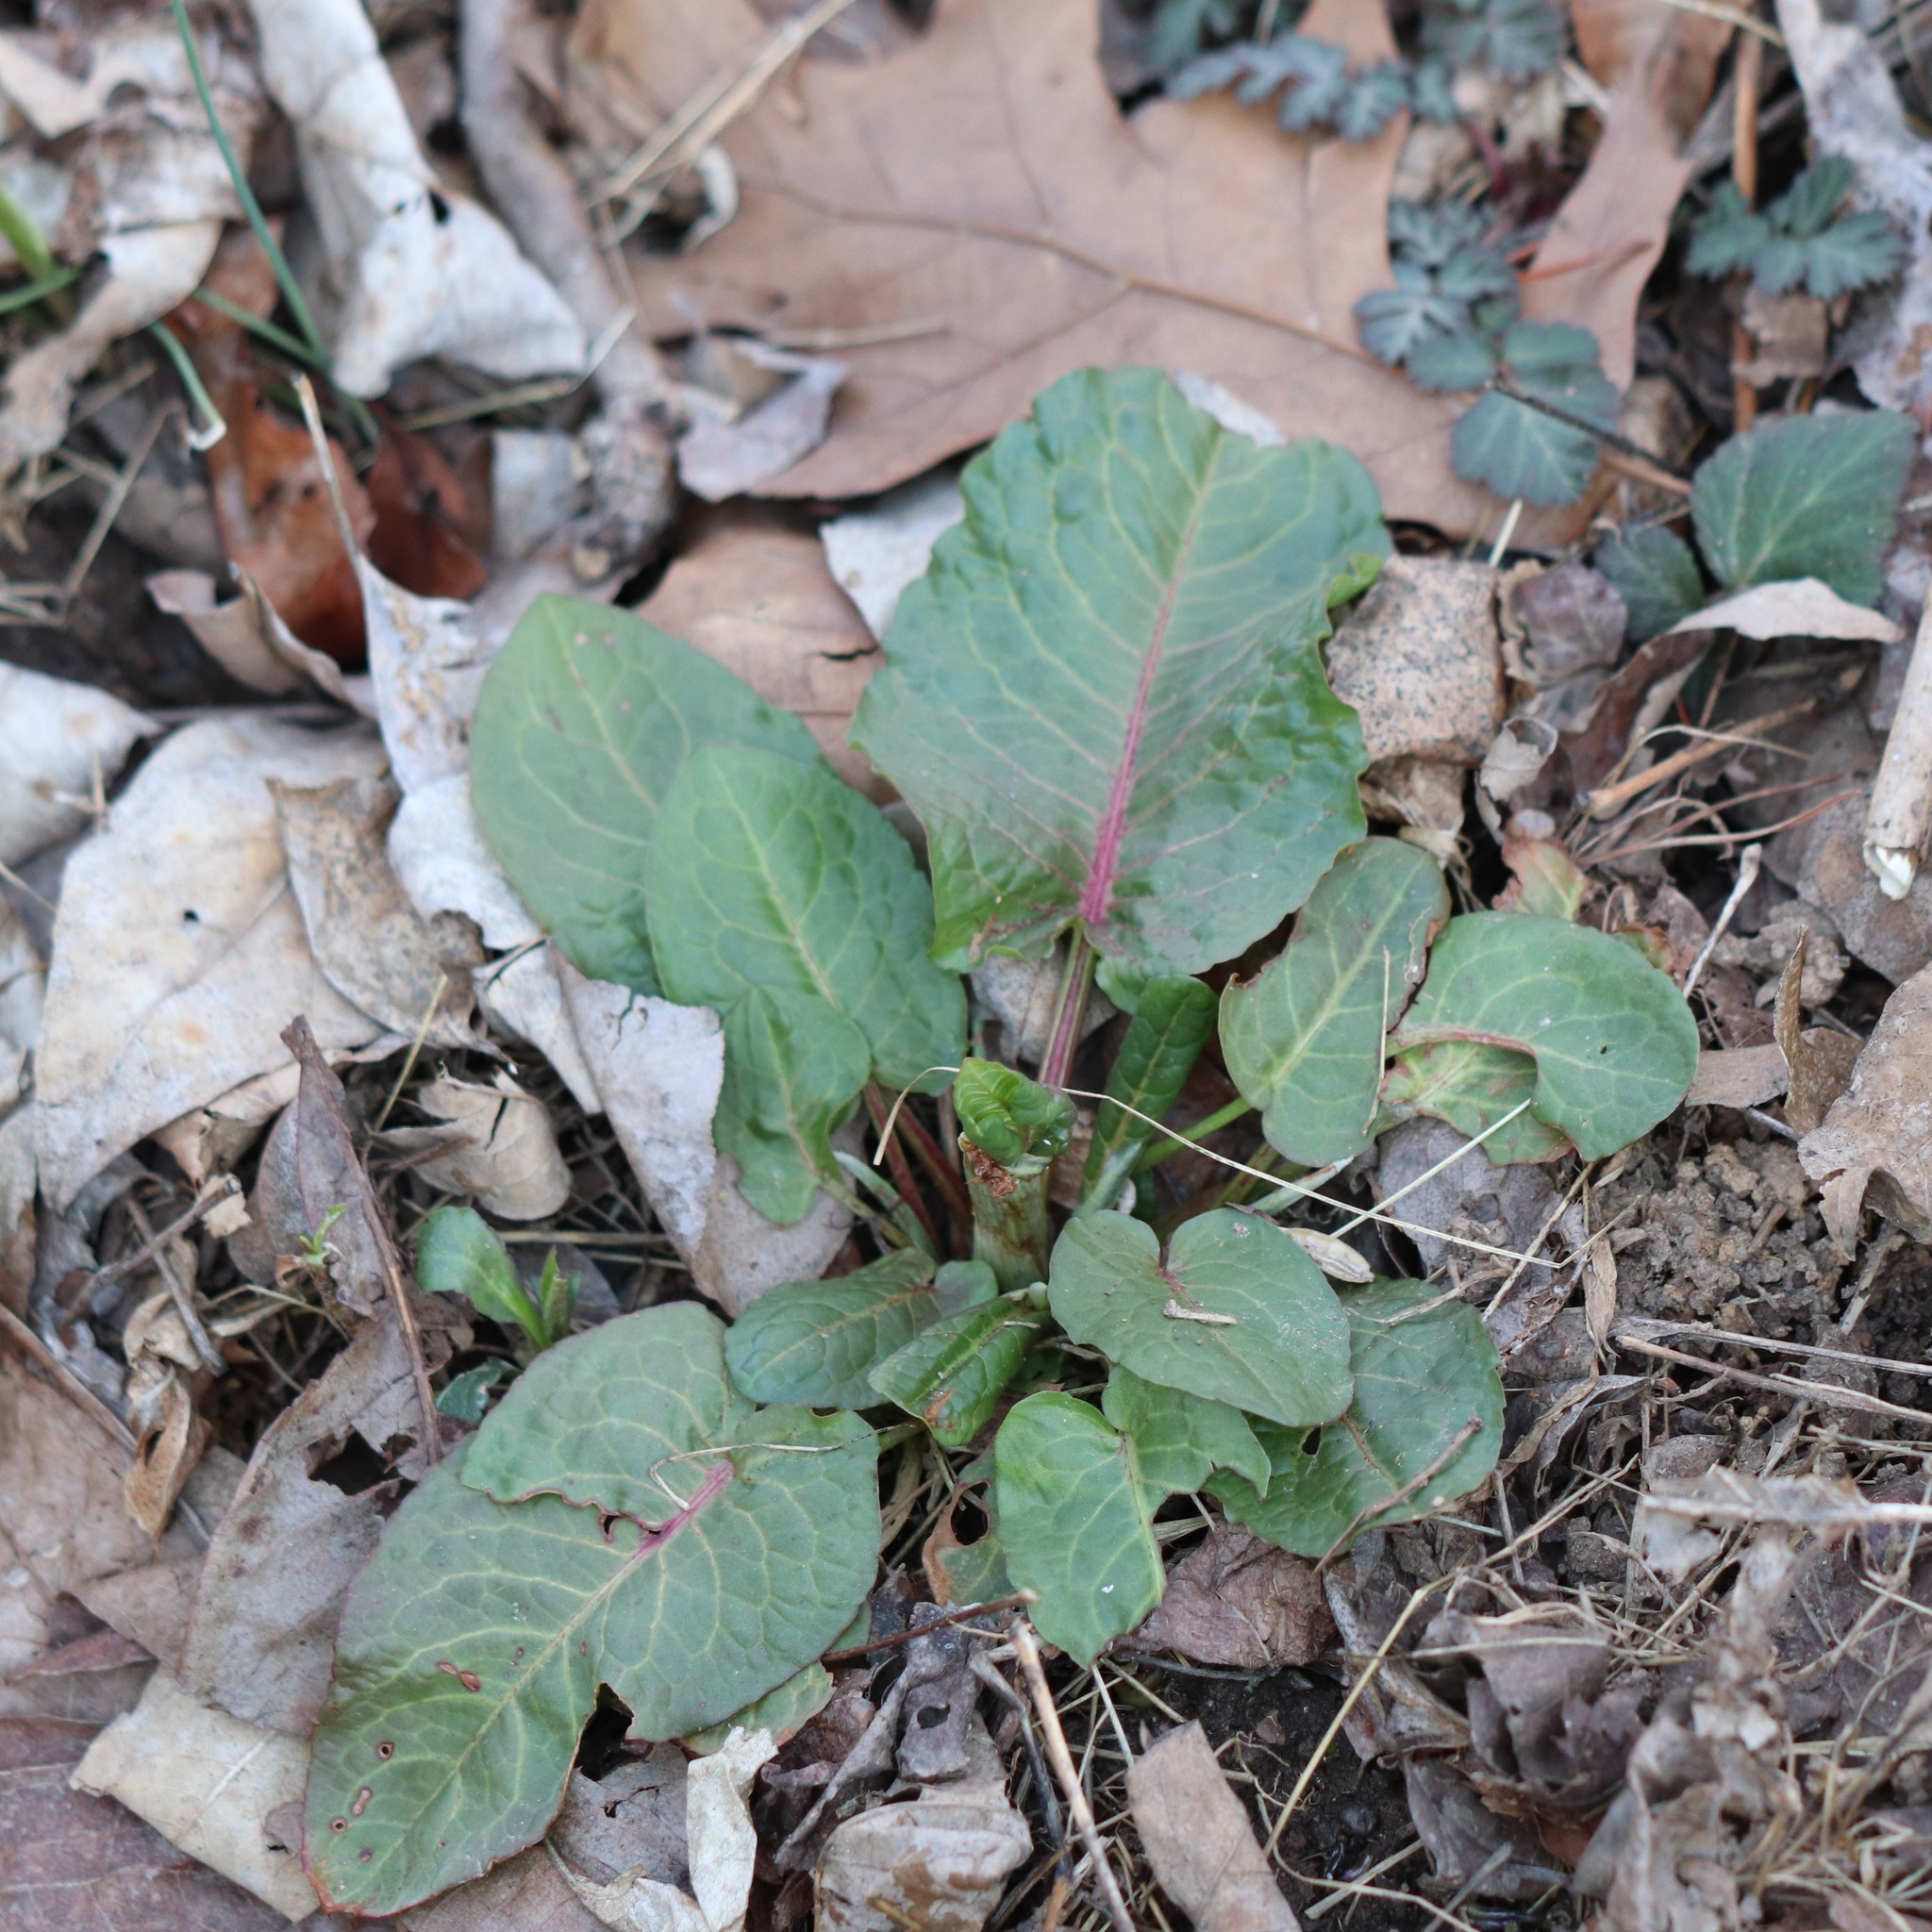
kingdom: Plantae
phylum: Tracheophyta
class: Magnoliopsida
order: Caryophyllales
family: Polygonaceae
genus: Rumex
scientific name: Rumex obtusifolius
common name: Bitter dock
